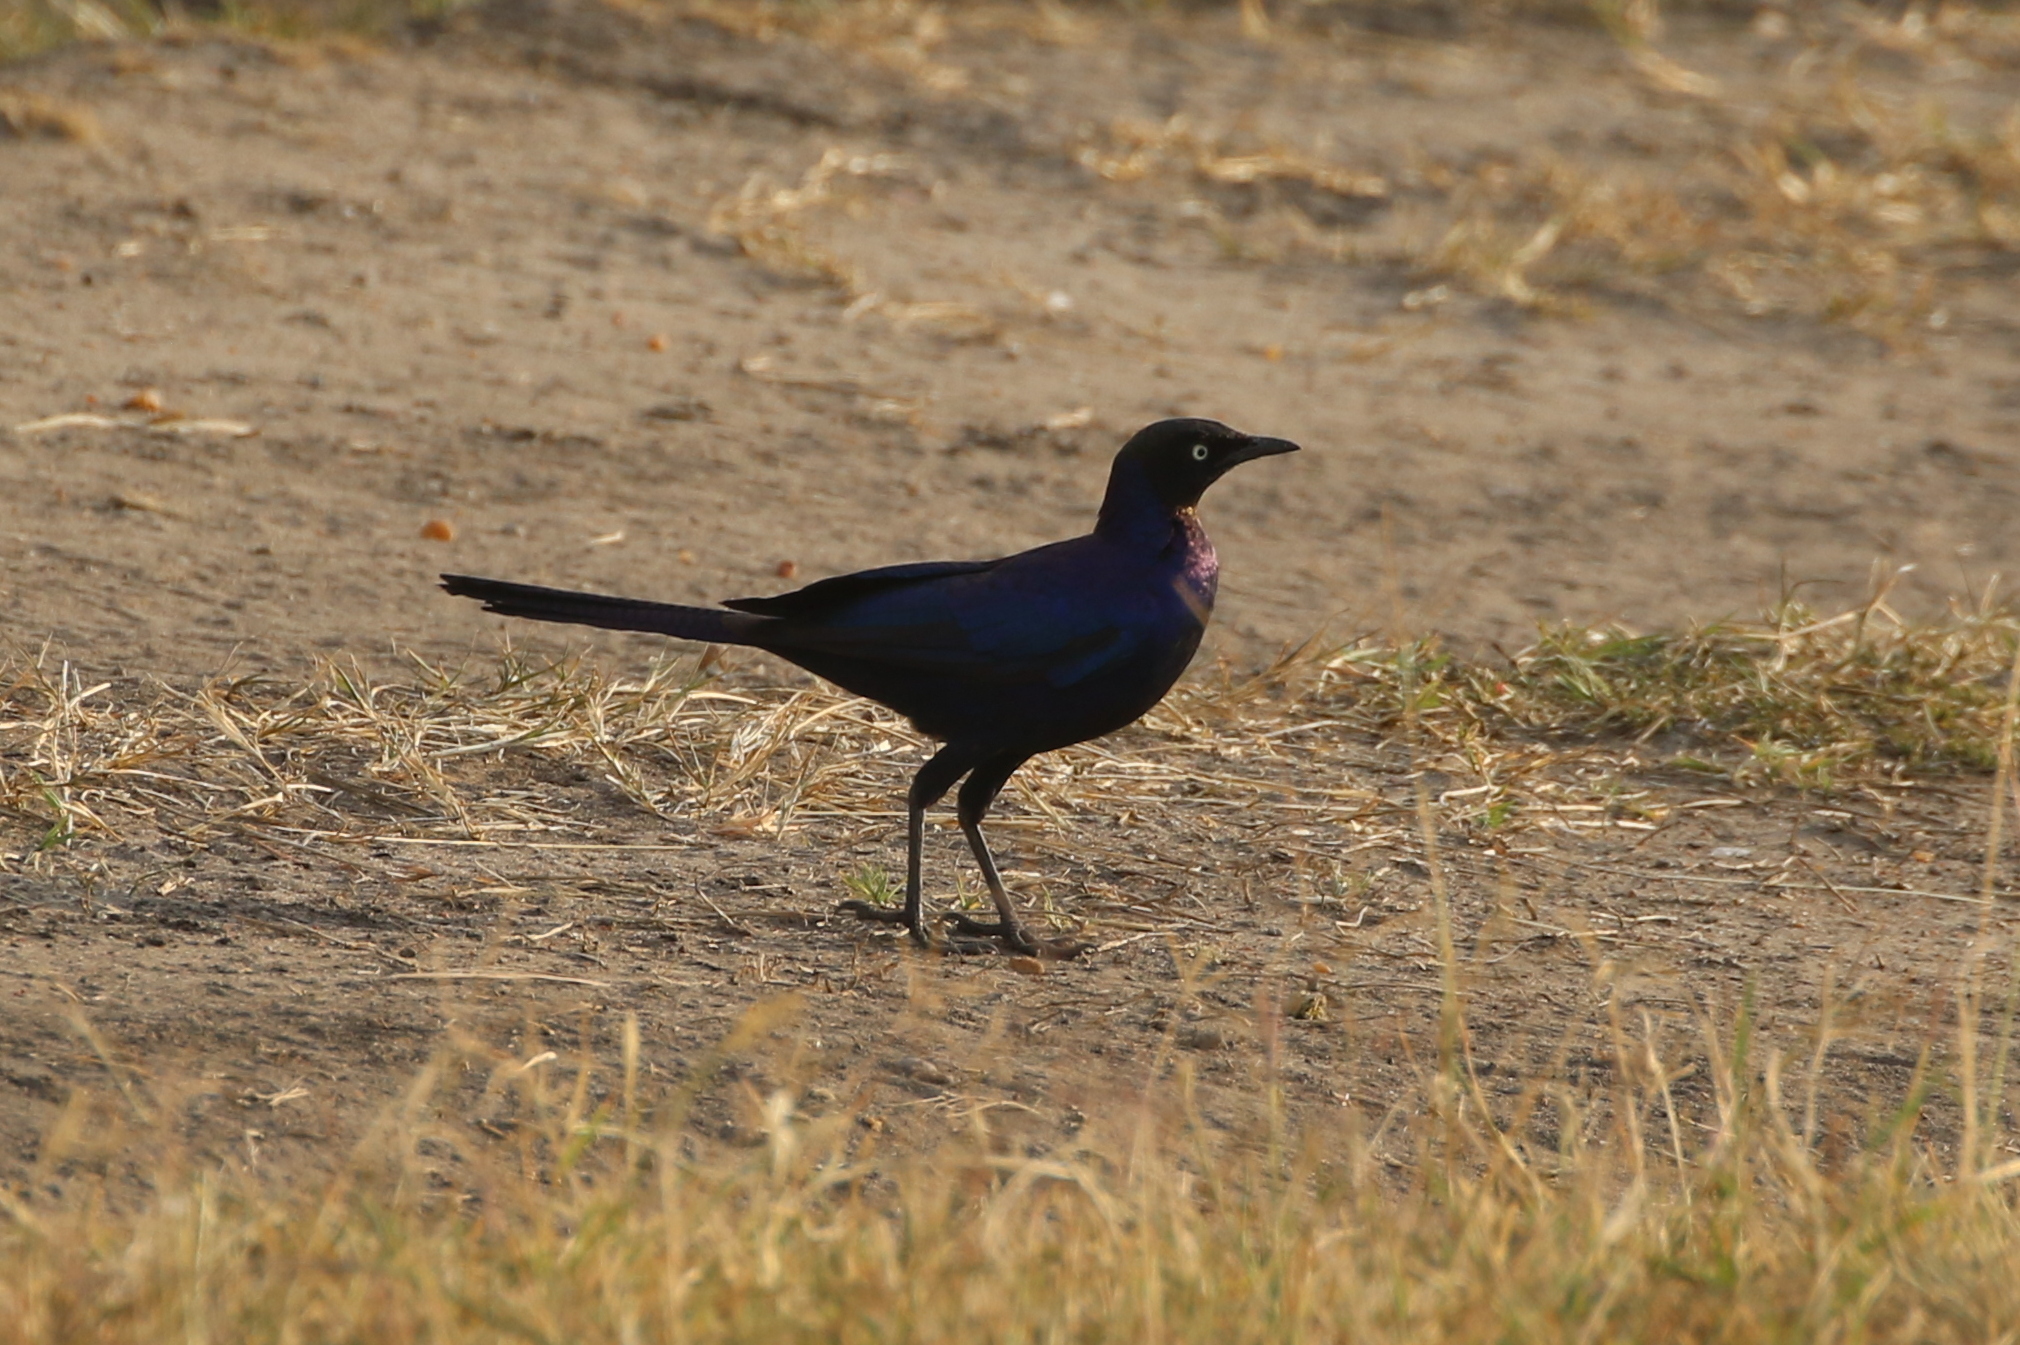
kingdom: Animalia
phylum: Chordata
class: Aves
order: Passeriformes
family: Sturnidae
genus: Lamprotornis
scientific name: Lamprotornis purpuroptera
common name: Rüppell's starling
